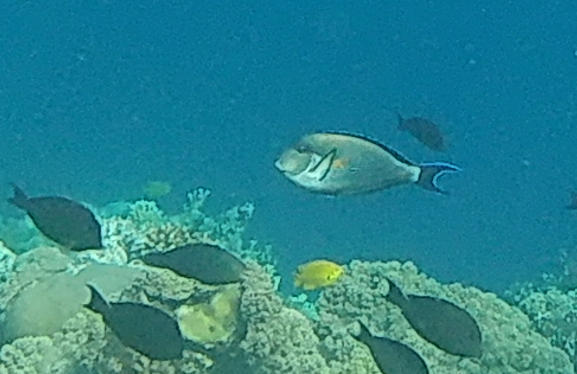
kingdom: Animalia
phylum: Chordata
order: Perciformes
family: Acanthuridae
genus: Acanthurus
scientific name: Acanthurus sohal
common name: Red sea surgeonfish
